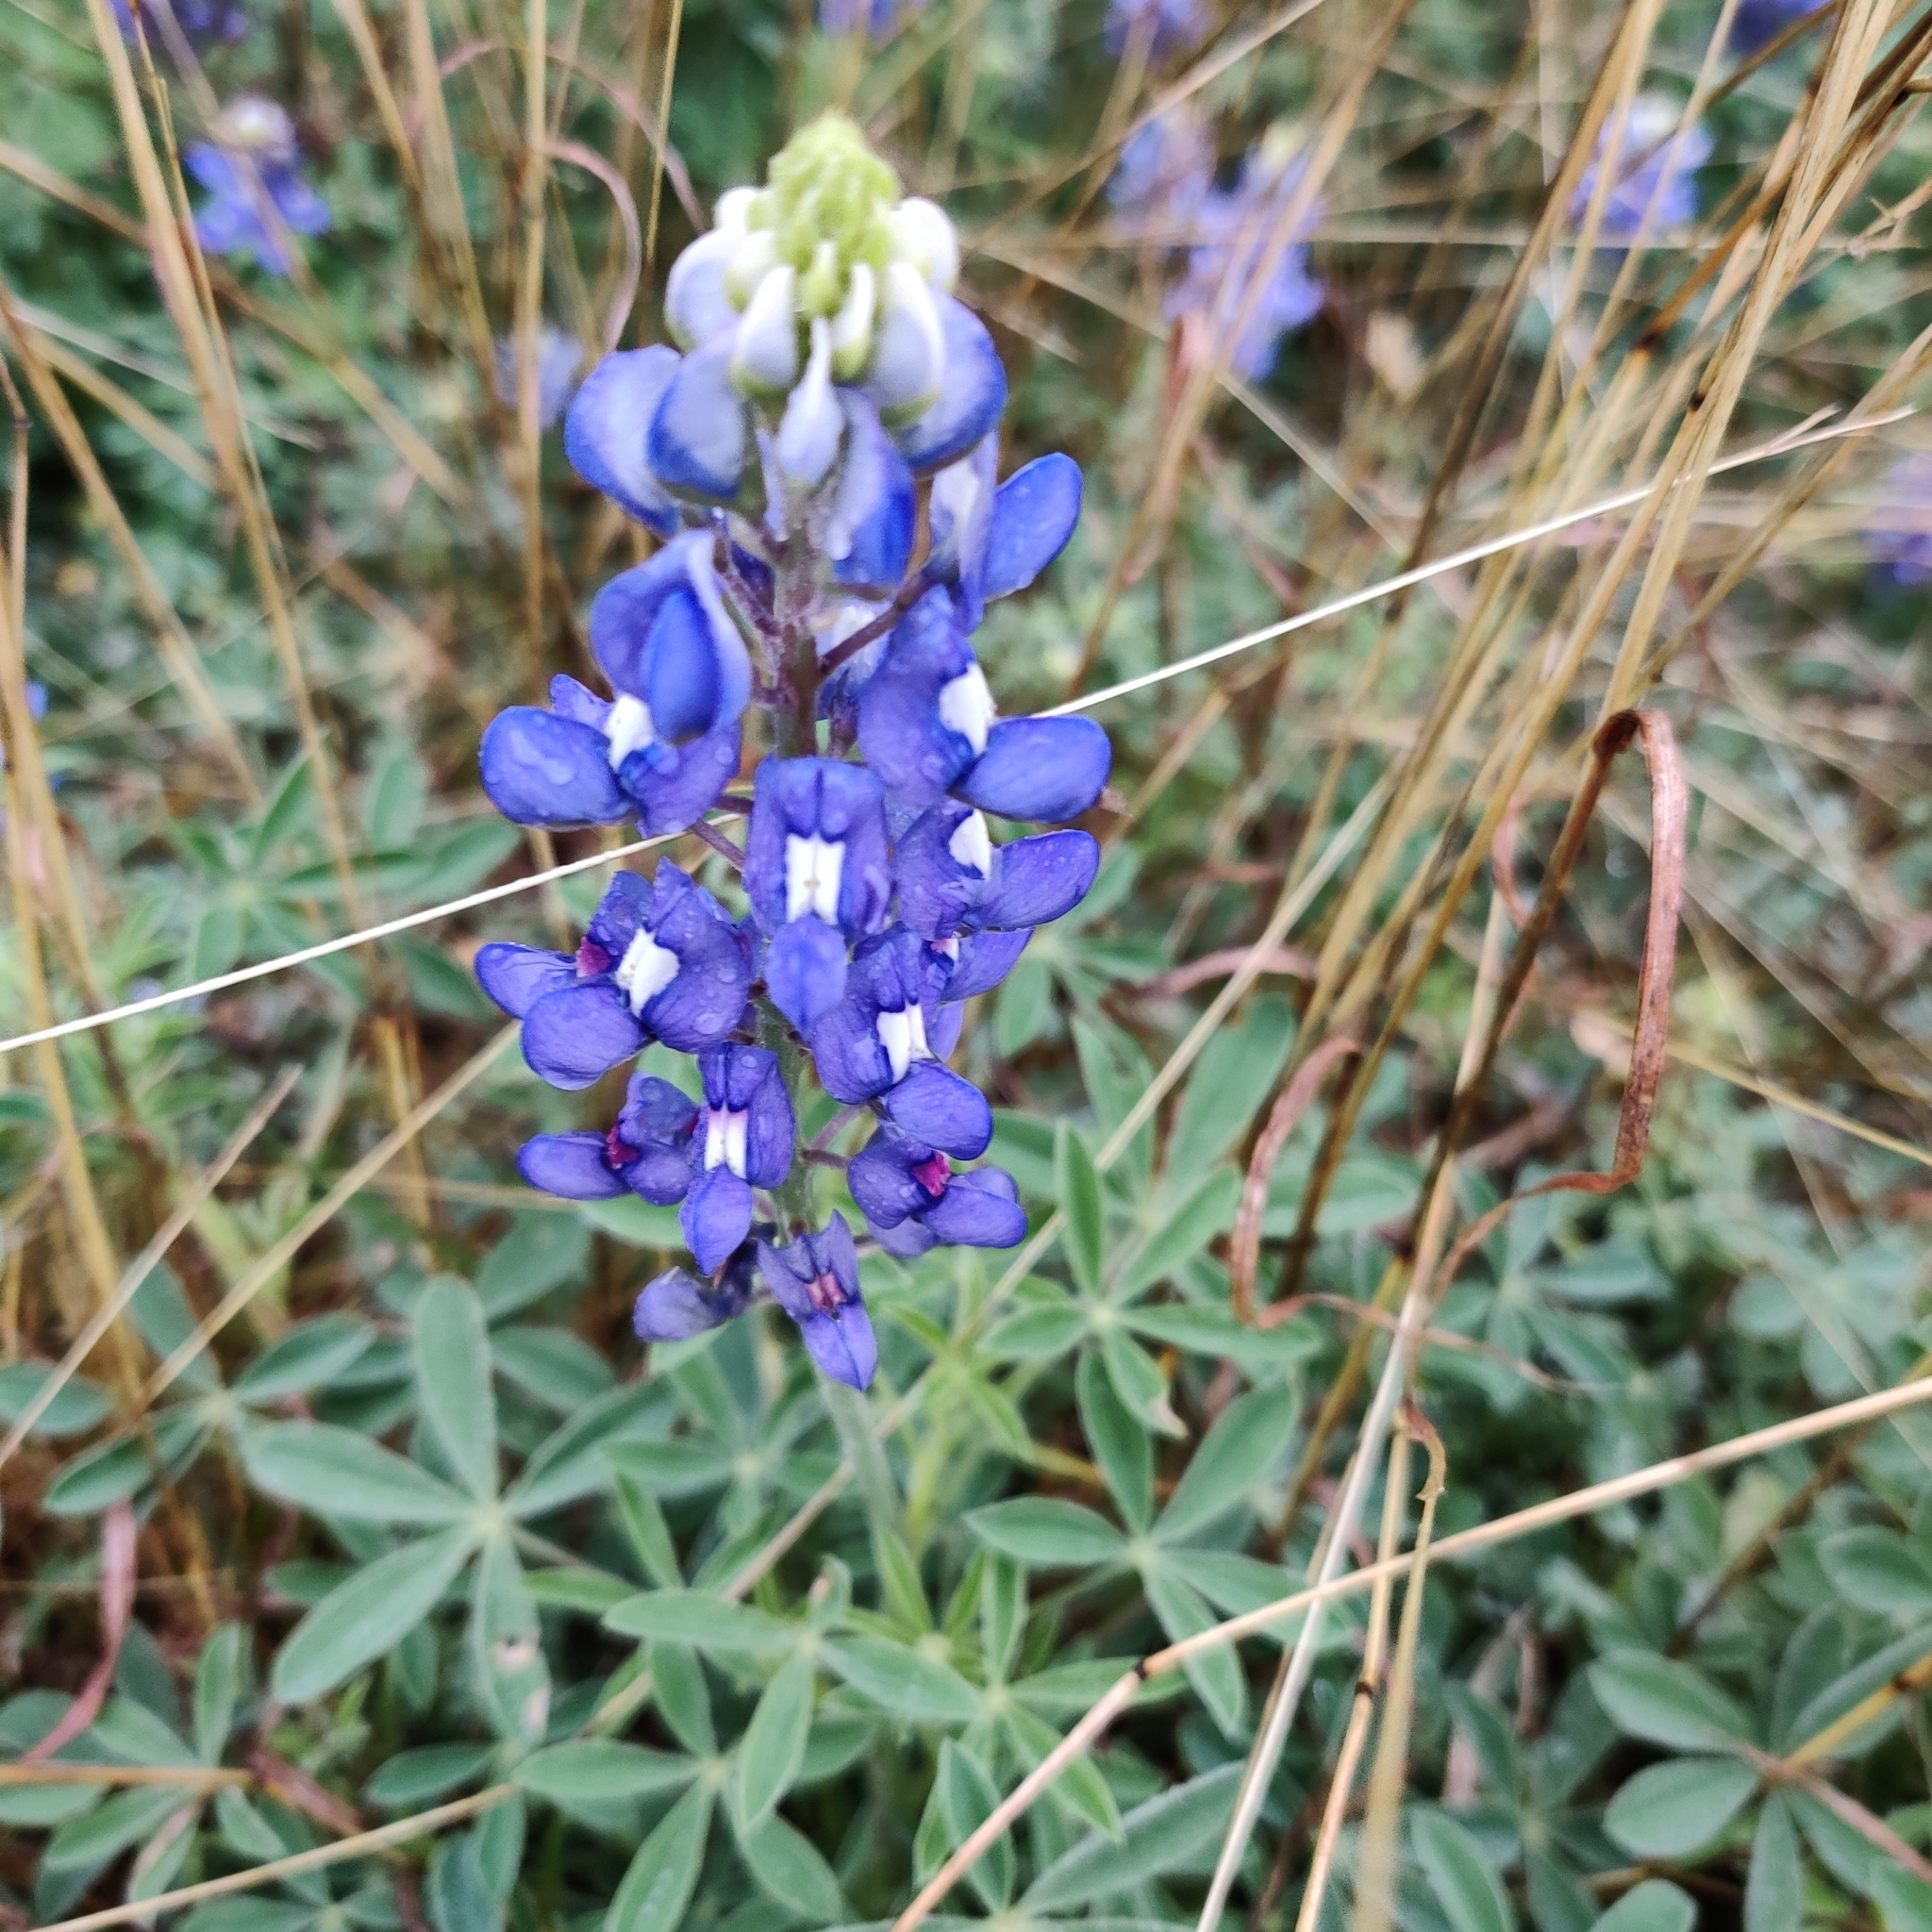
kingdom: Plantae
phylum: Tracheophyta
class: Magnoliopsida
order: Fabales
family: Fabaceae
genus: Lupinus
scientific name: Lupinus texensis
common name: Texas bluebonnet
